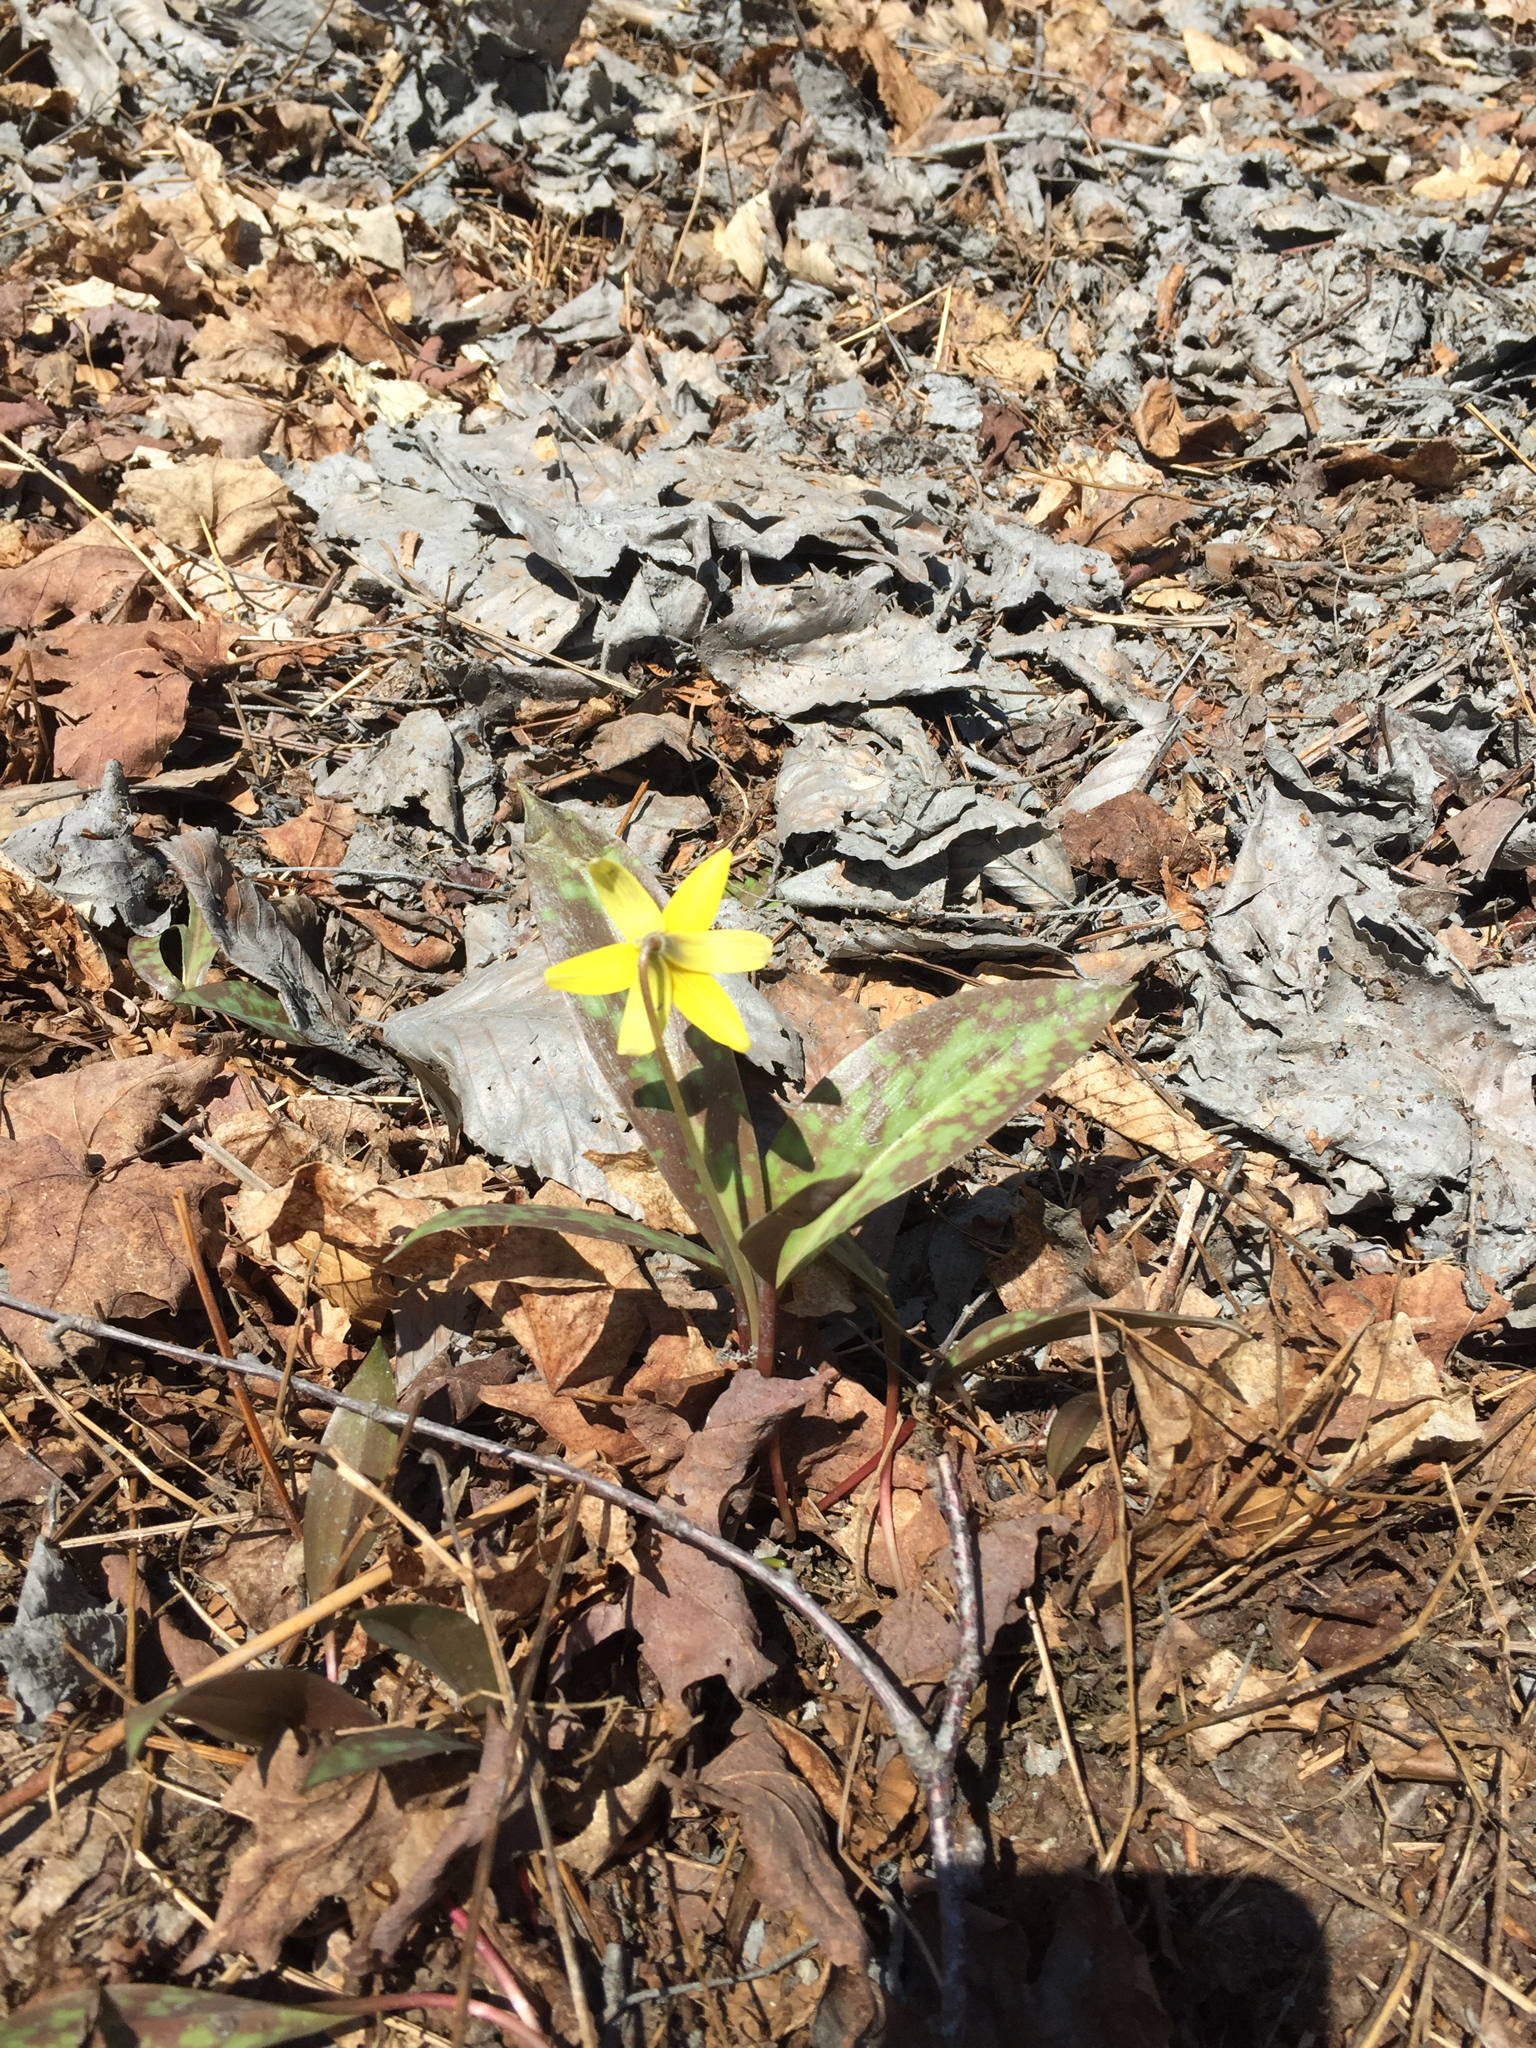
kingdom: Plantae
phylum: Tracheophyta
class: Liliopsida
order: Liliales
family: Liliaceae
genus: Erythronium
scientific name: Erythronium americanum
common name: Yellow adder's-tongue
